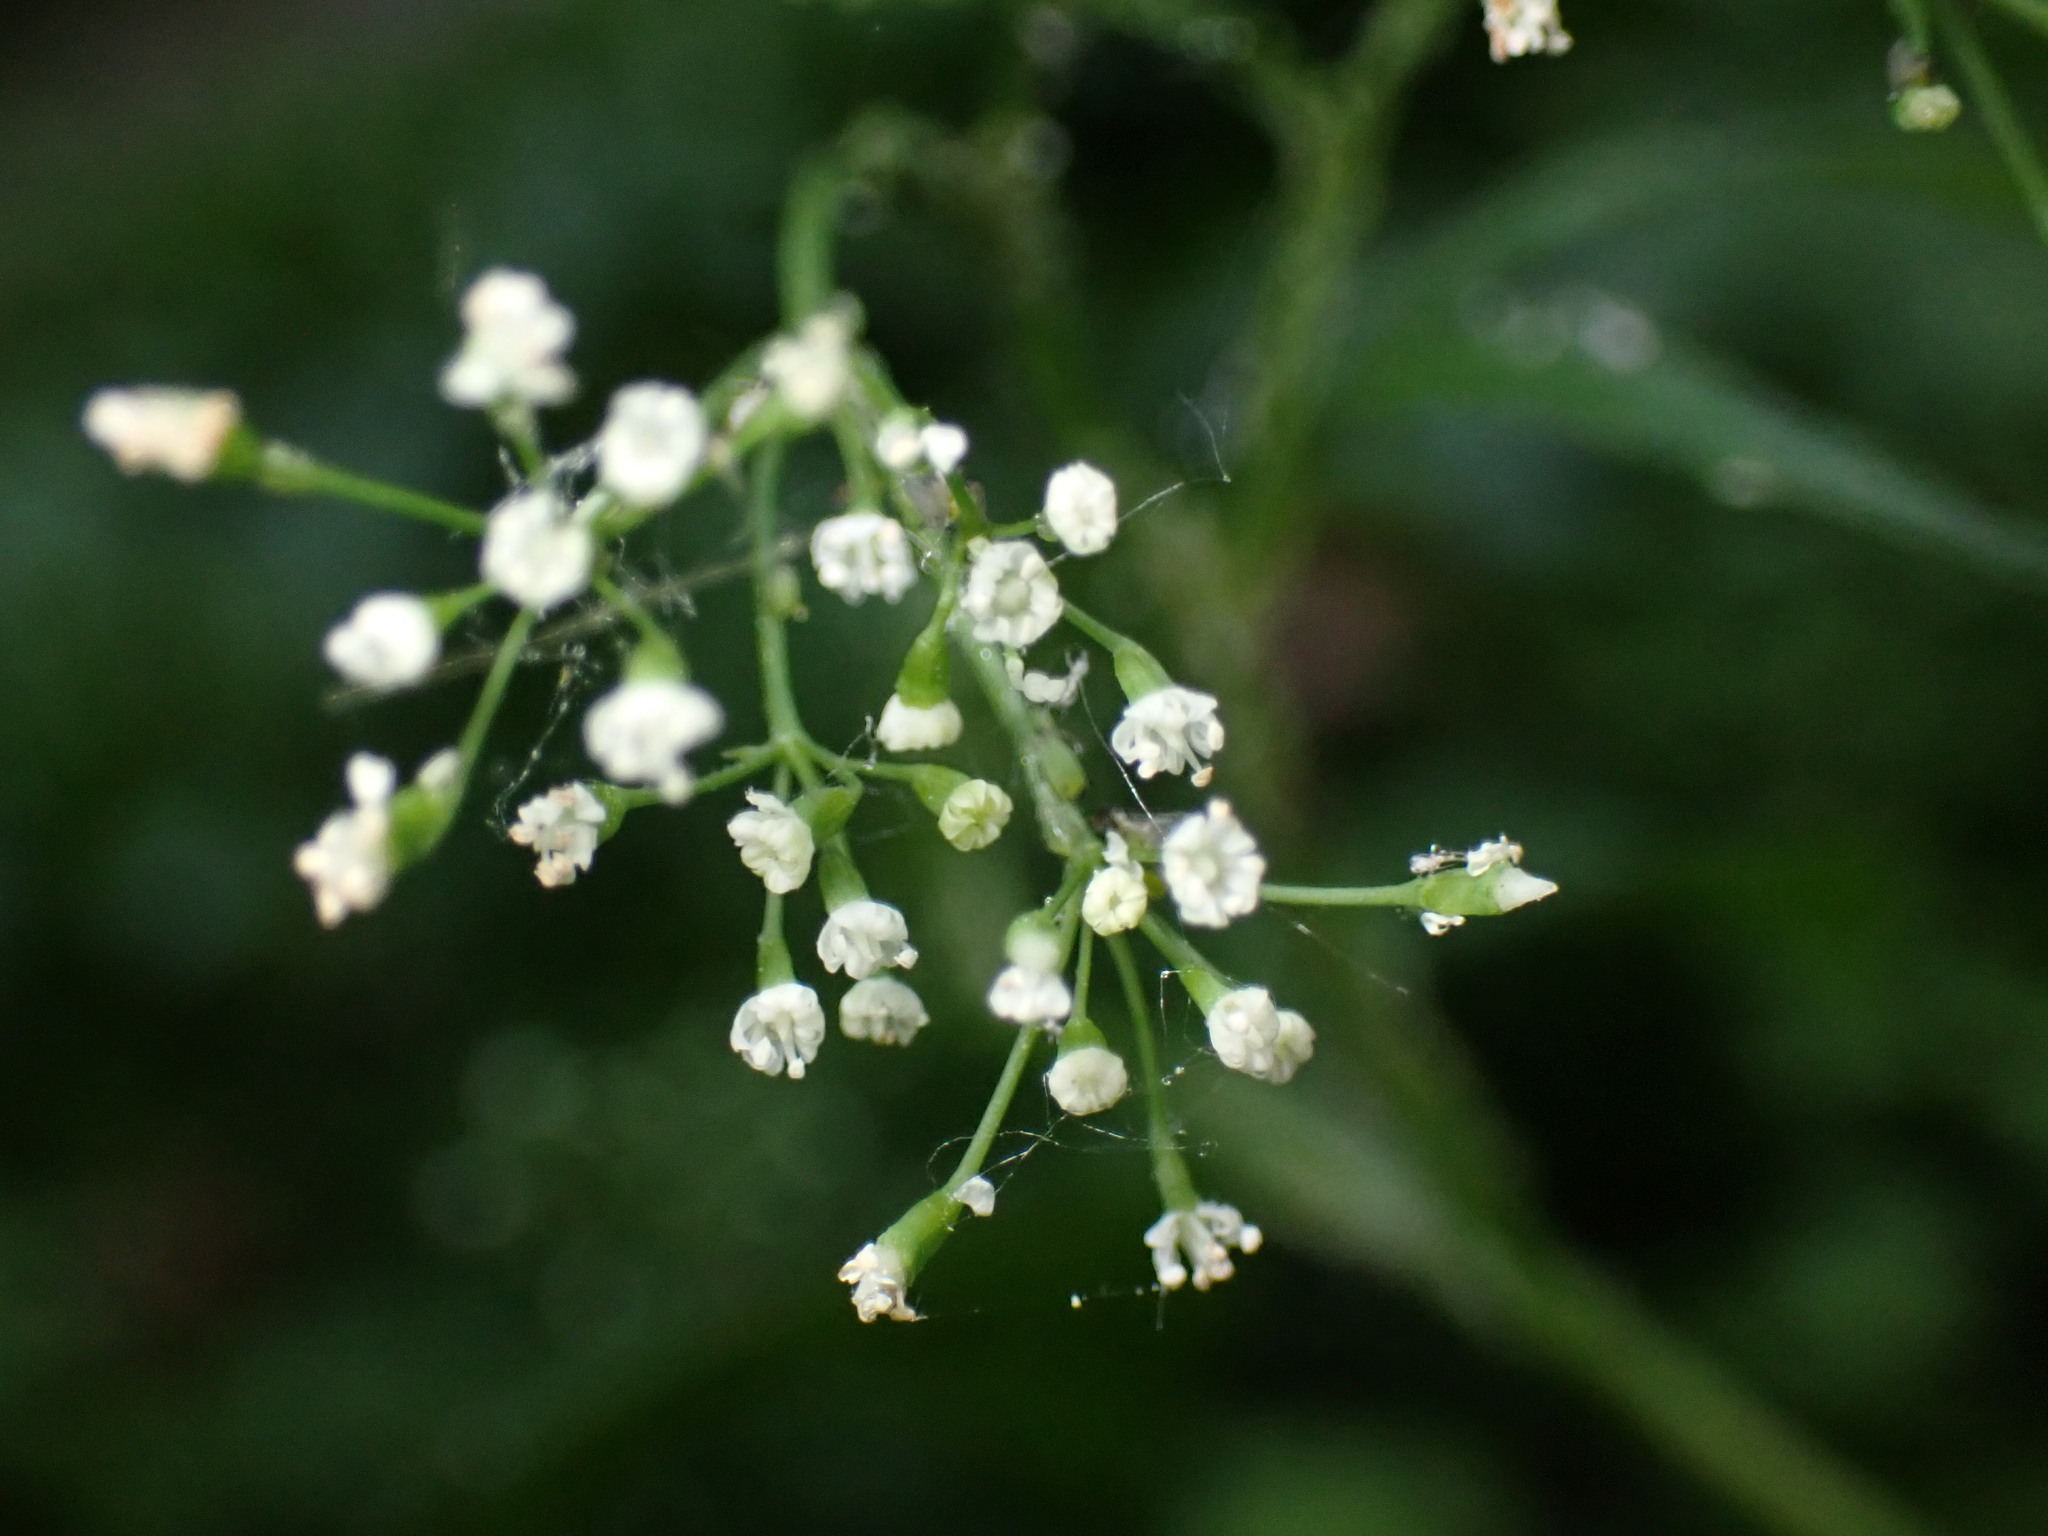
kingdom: Plantae
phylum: Tracheophyta
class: Magnoliopsida
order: Apiales
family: Apiaceae
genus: Cryptotaenia
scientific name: Cryptotaenia canadensis
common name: Honewort
